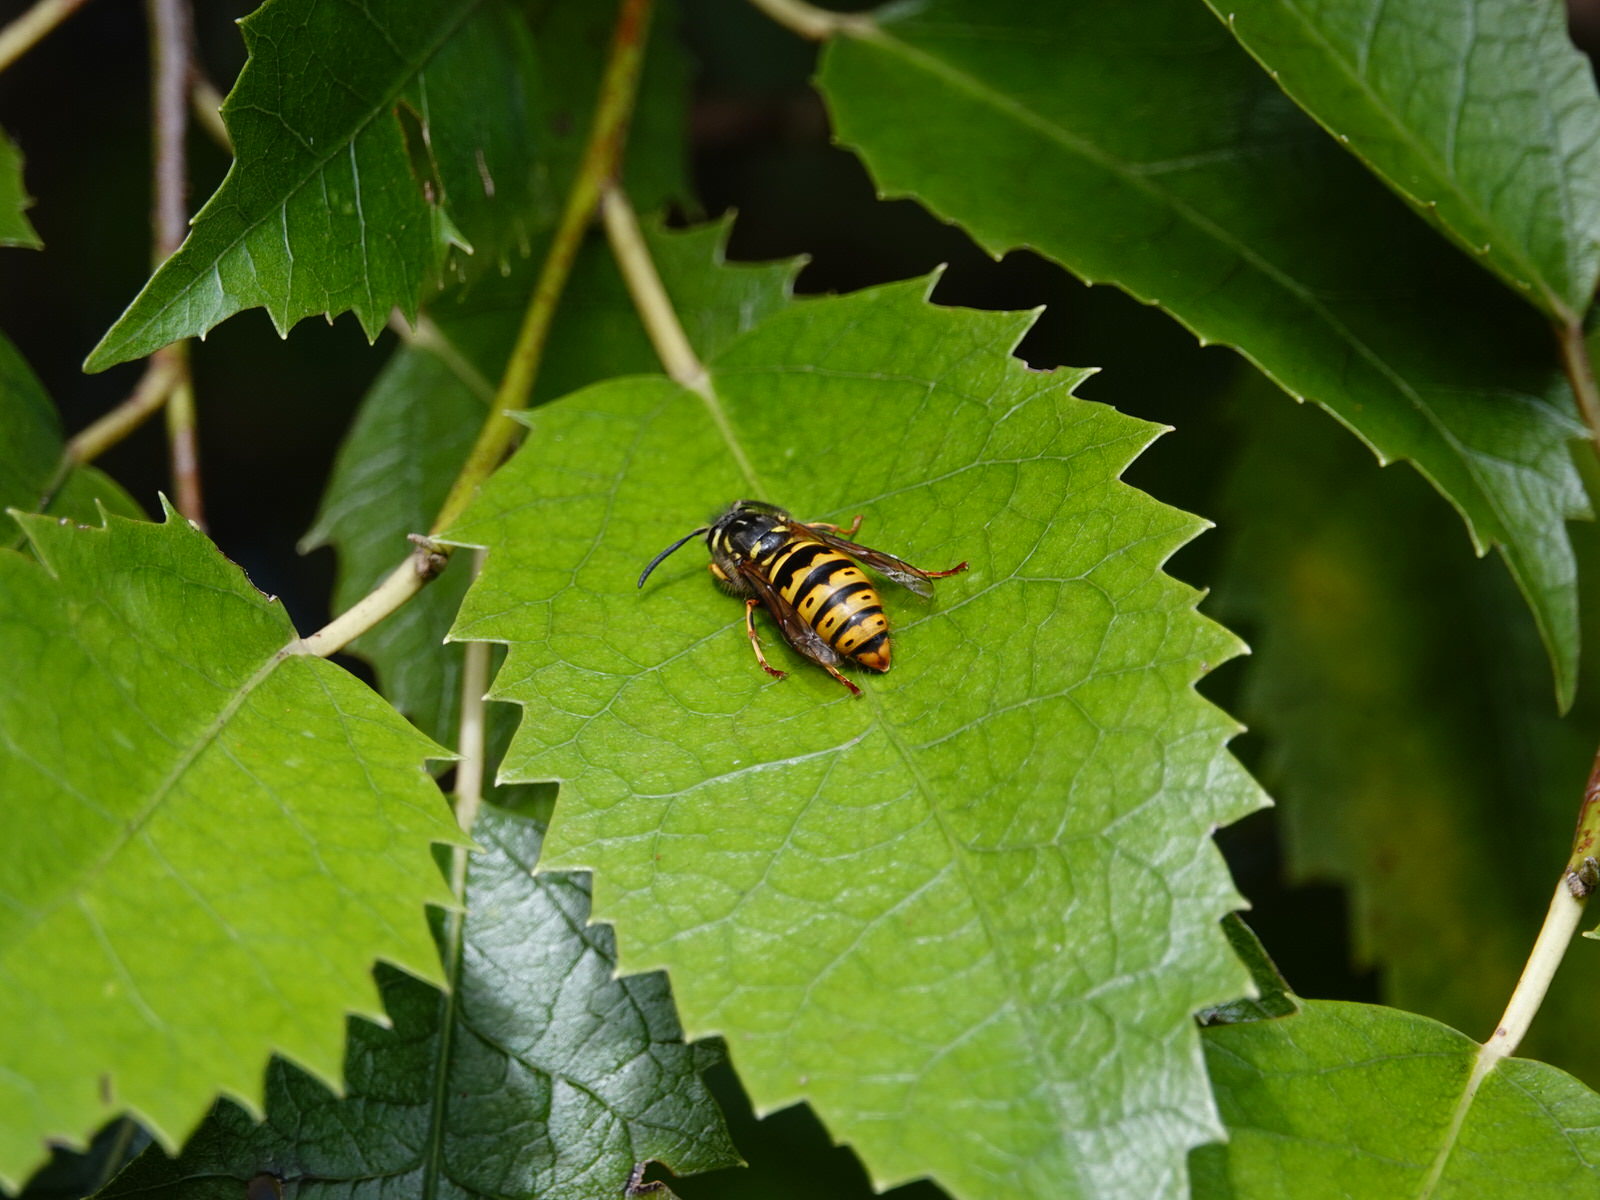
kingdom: Animalia
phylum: Arthropoda
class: Insecta
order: Hymenoptera
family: Vespidae
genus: Vespula
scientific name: Vespula vulgaris
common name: Common wasp
